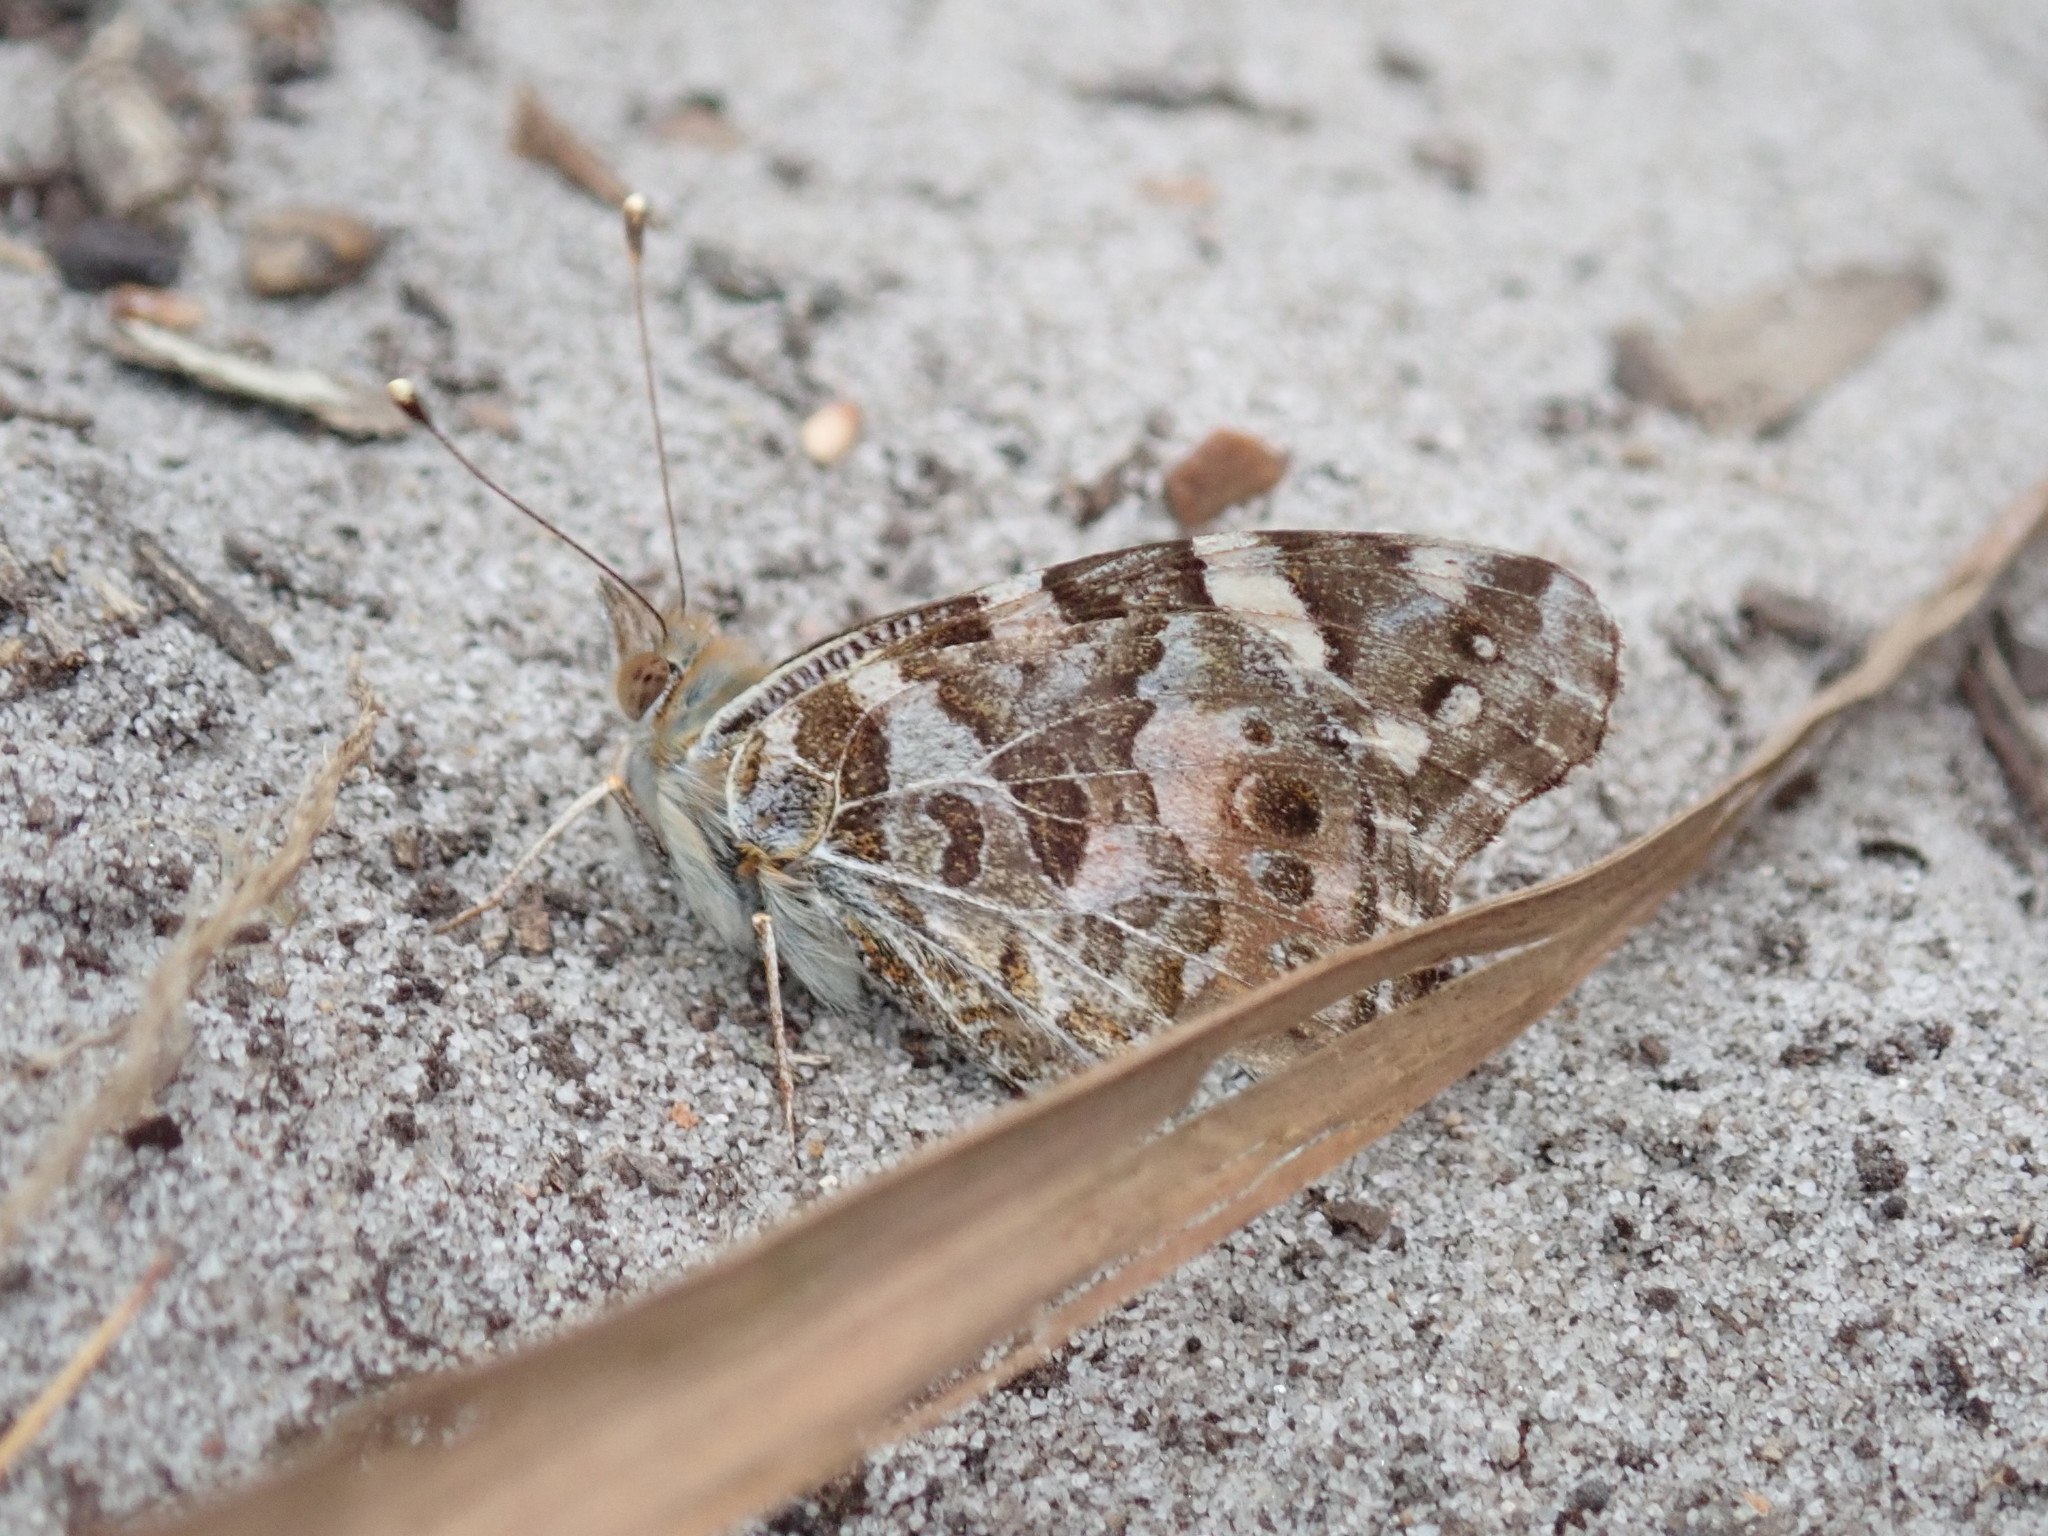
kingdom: Animalia
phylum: Arthropoda
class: Insecta
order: Lepidoptera
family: Nymphalidae
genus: Vanessa
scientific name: Vanessa kershawi
